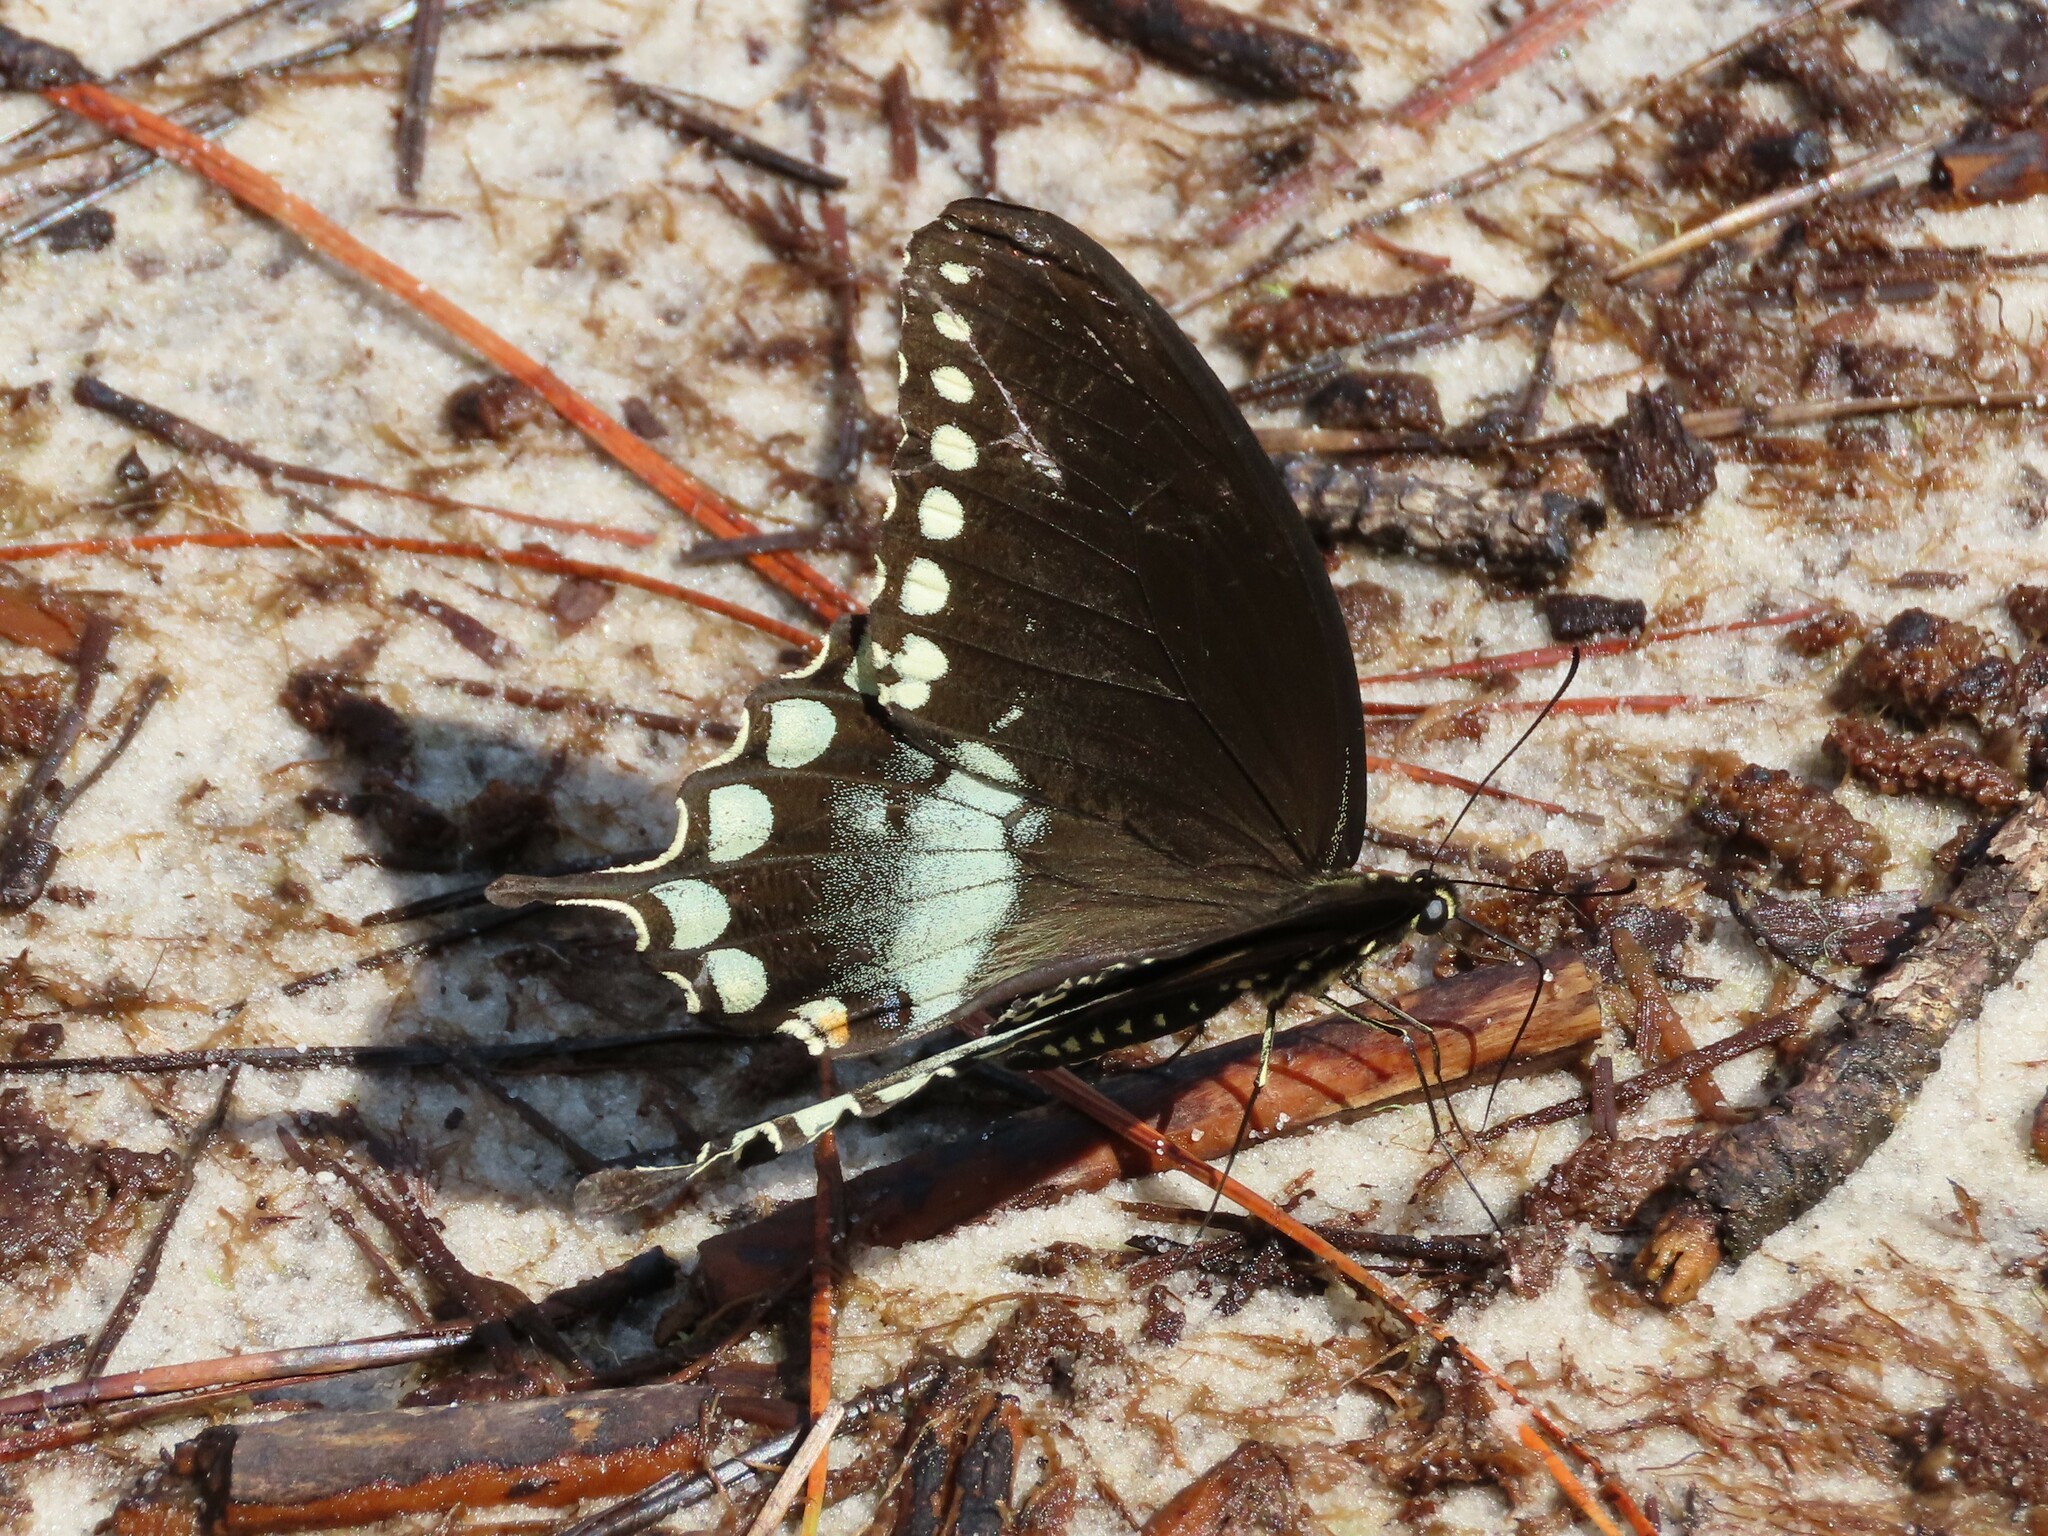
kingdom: Animalia
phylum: Arthropoda
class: Insecta
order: Lepidoptera
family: Papilionidae
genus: Papilio
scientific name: Papilio troilus
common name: Spicebush swallowtail
